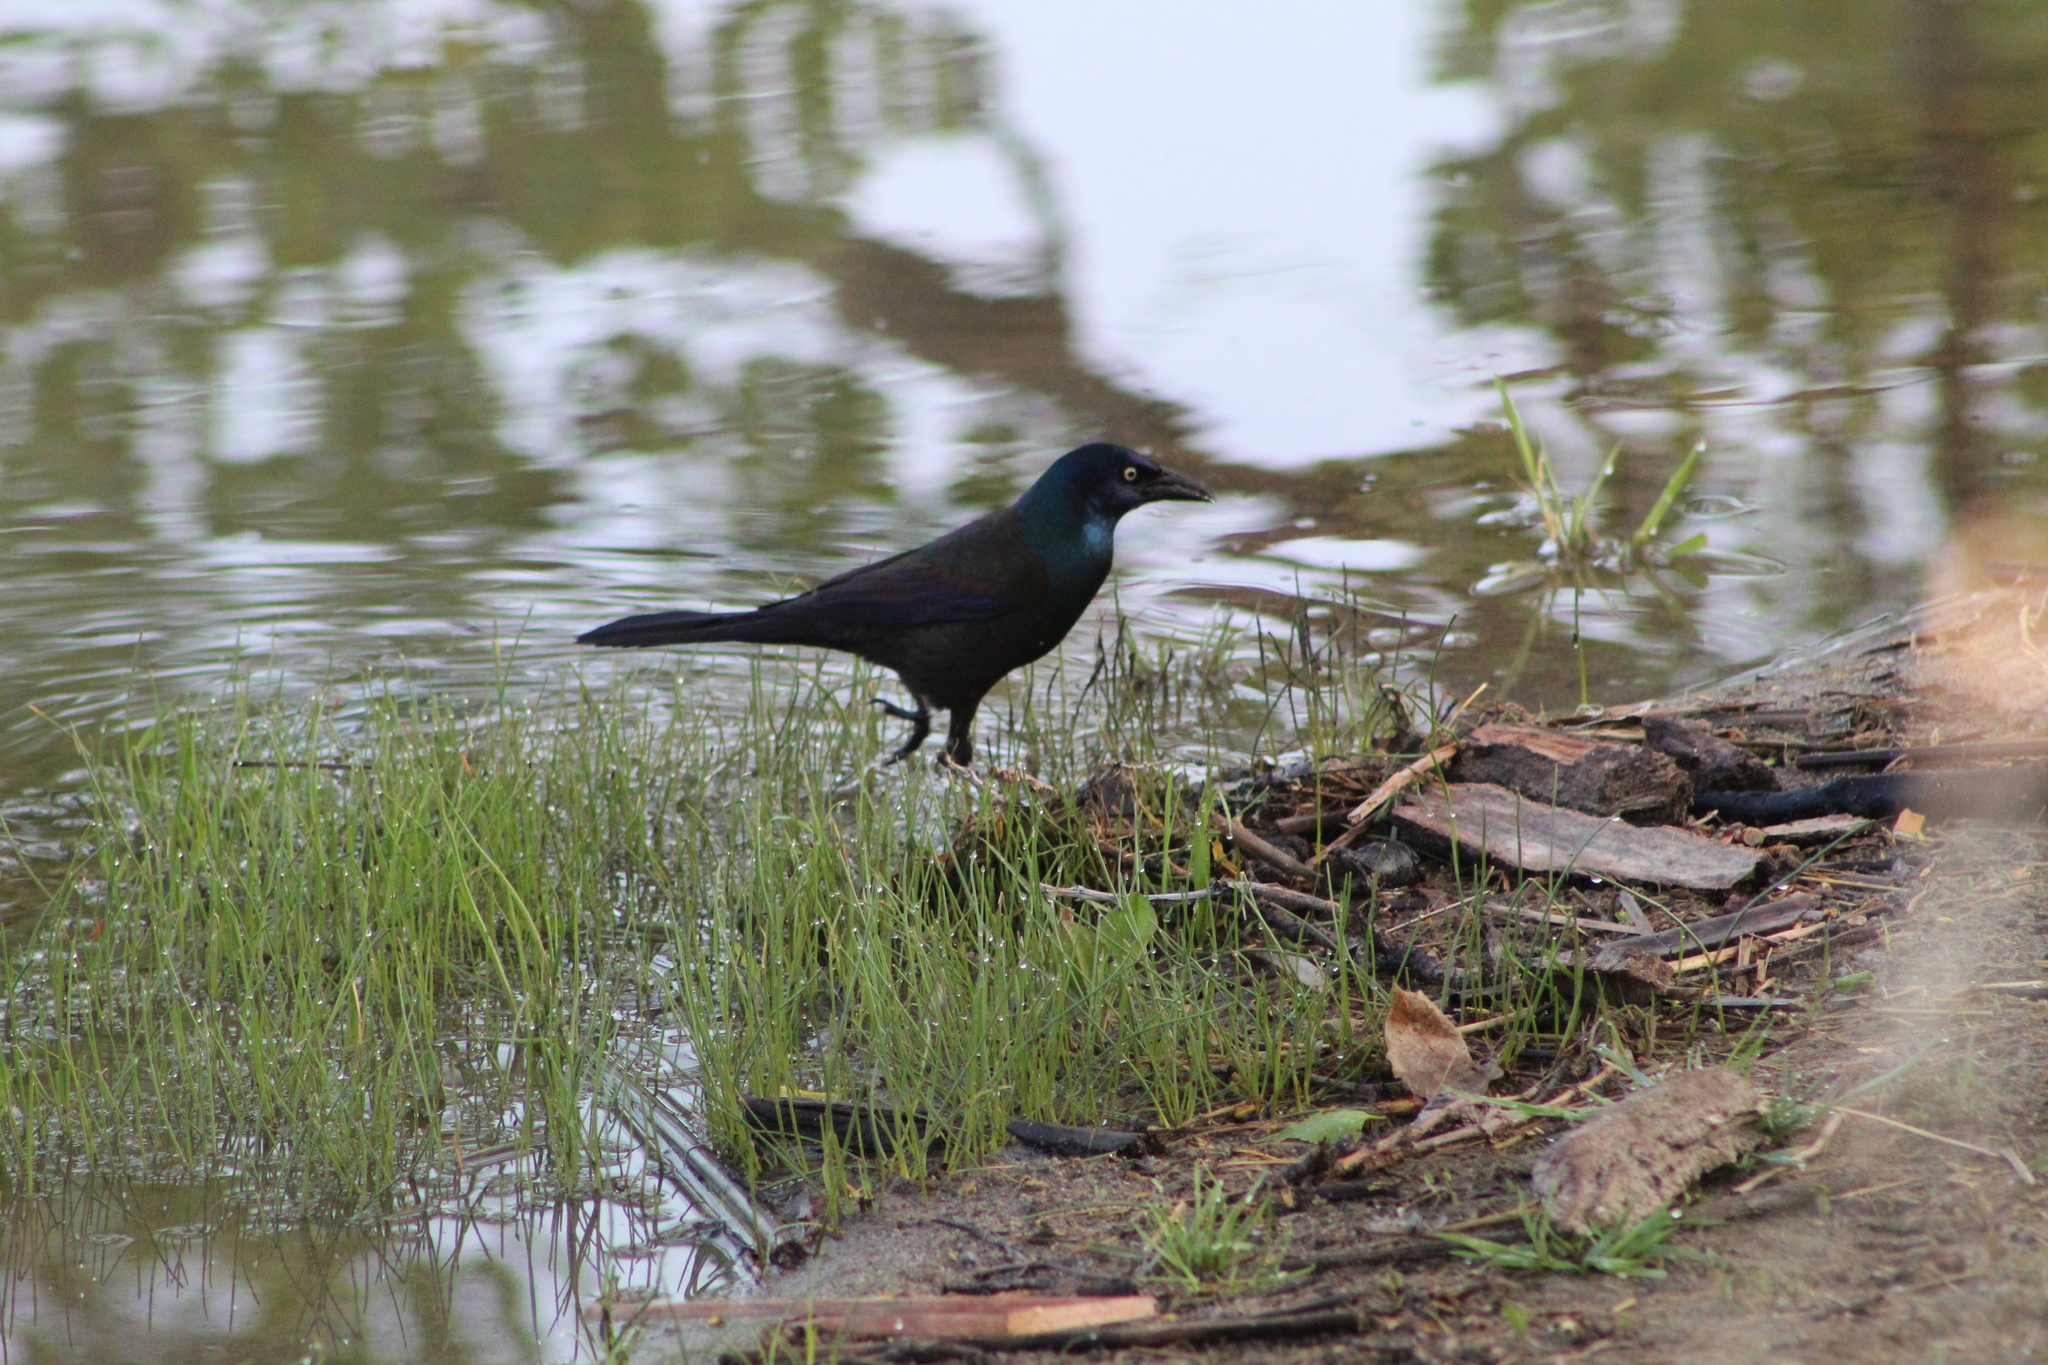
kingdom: Animalia
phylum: Chordata
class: Aves
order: Passeriformes
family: Icteridae
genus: Quiscalus
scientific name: Quiscalus quiscula
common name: Common grackle
